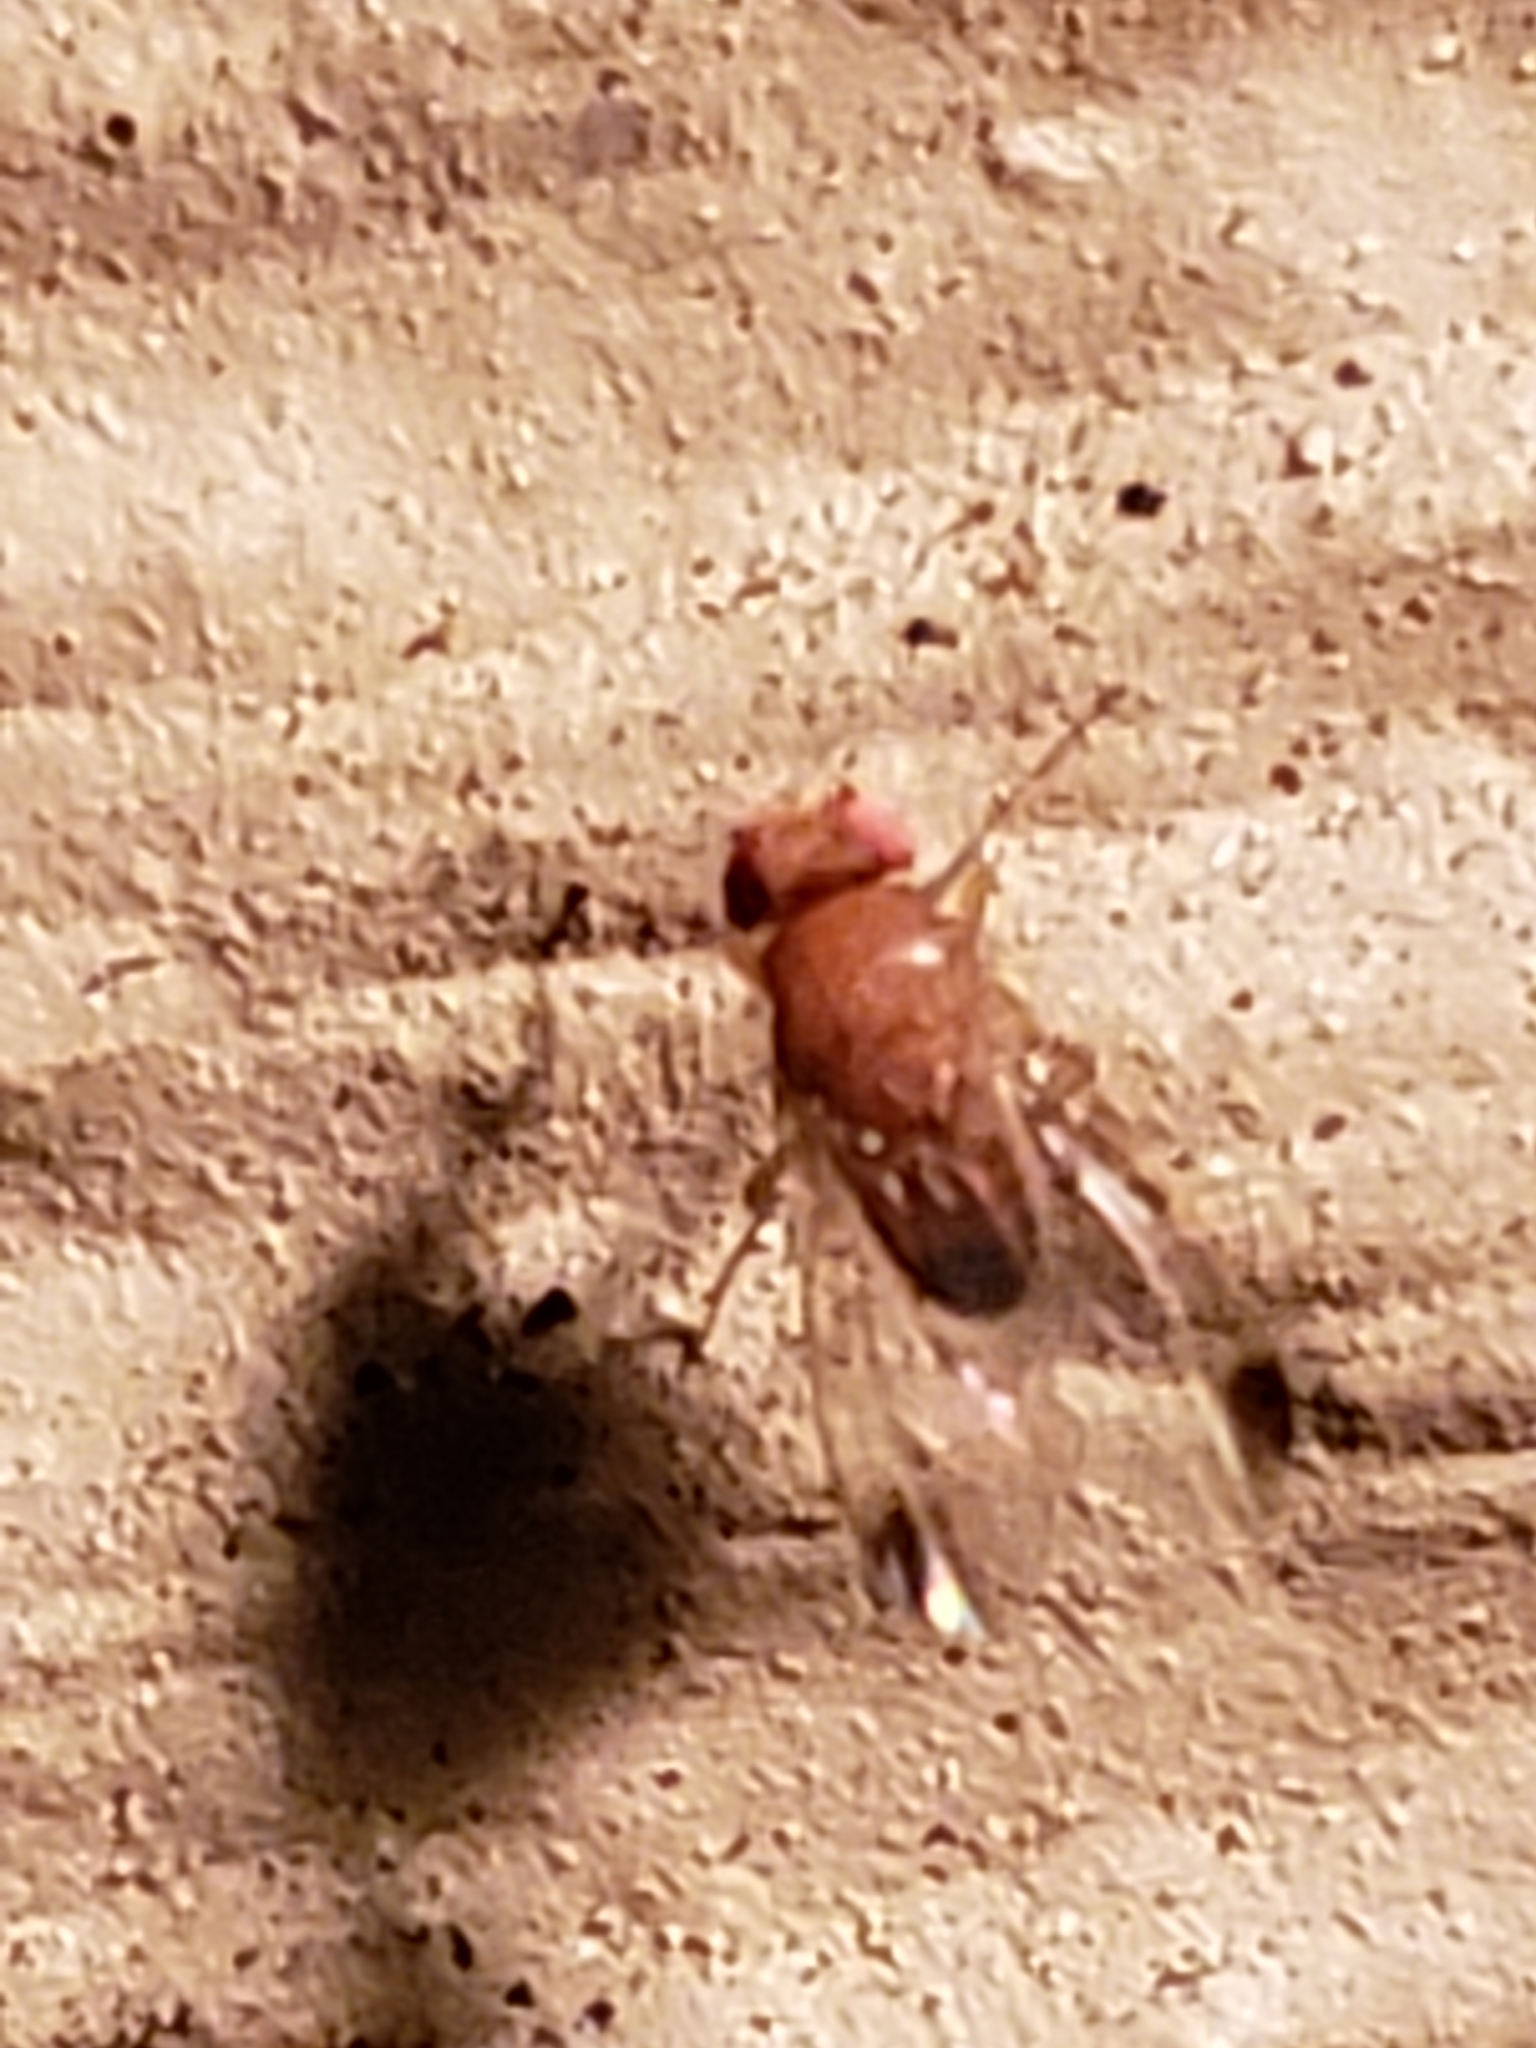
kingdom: Animalia
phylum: Arthropoda
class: Insecta
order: Diptera
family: Drosophilidae
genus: Drosophila
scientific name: Drosophila suzukii
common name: Spotted-wing drosophila
